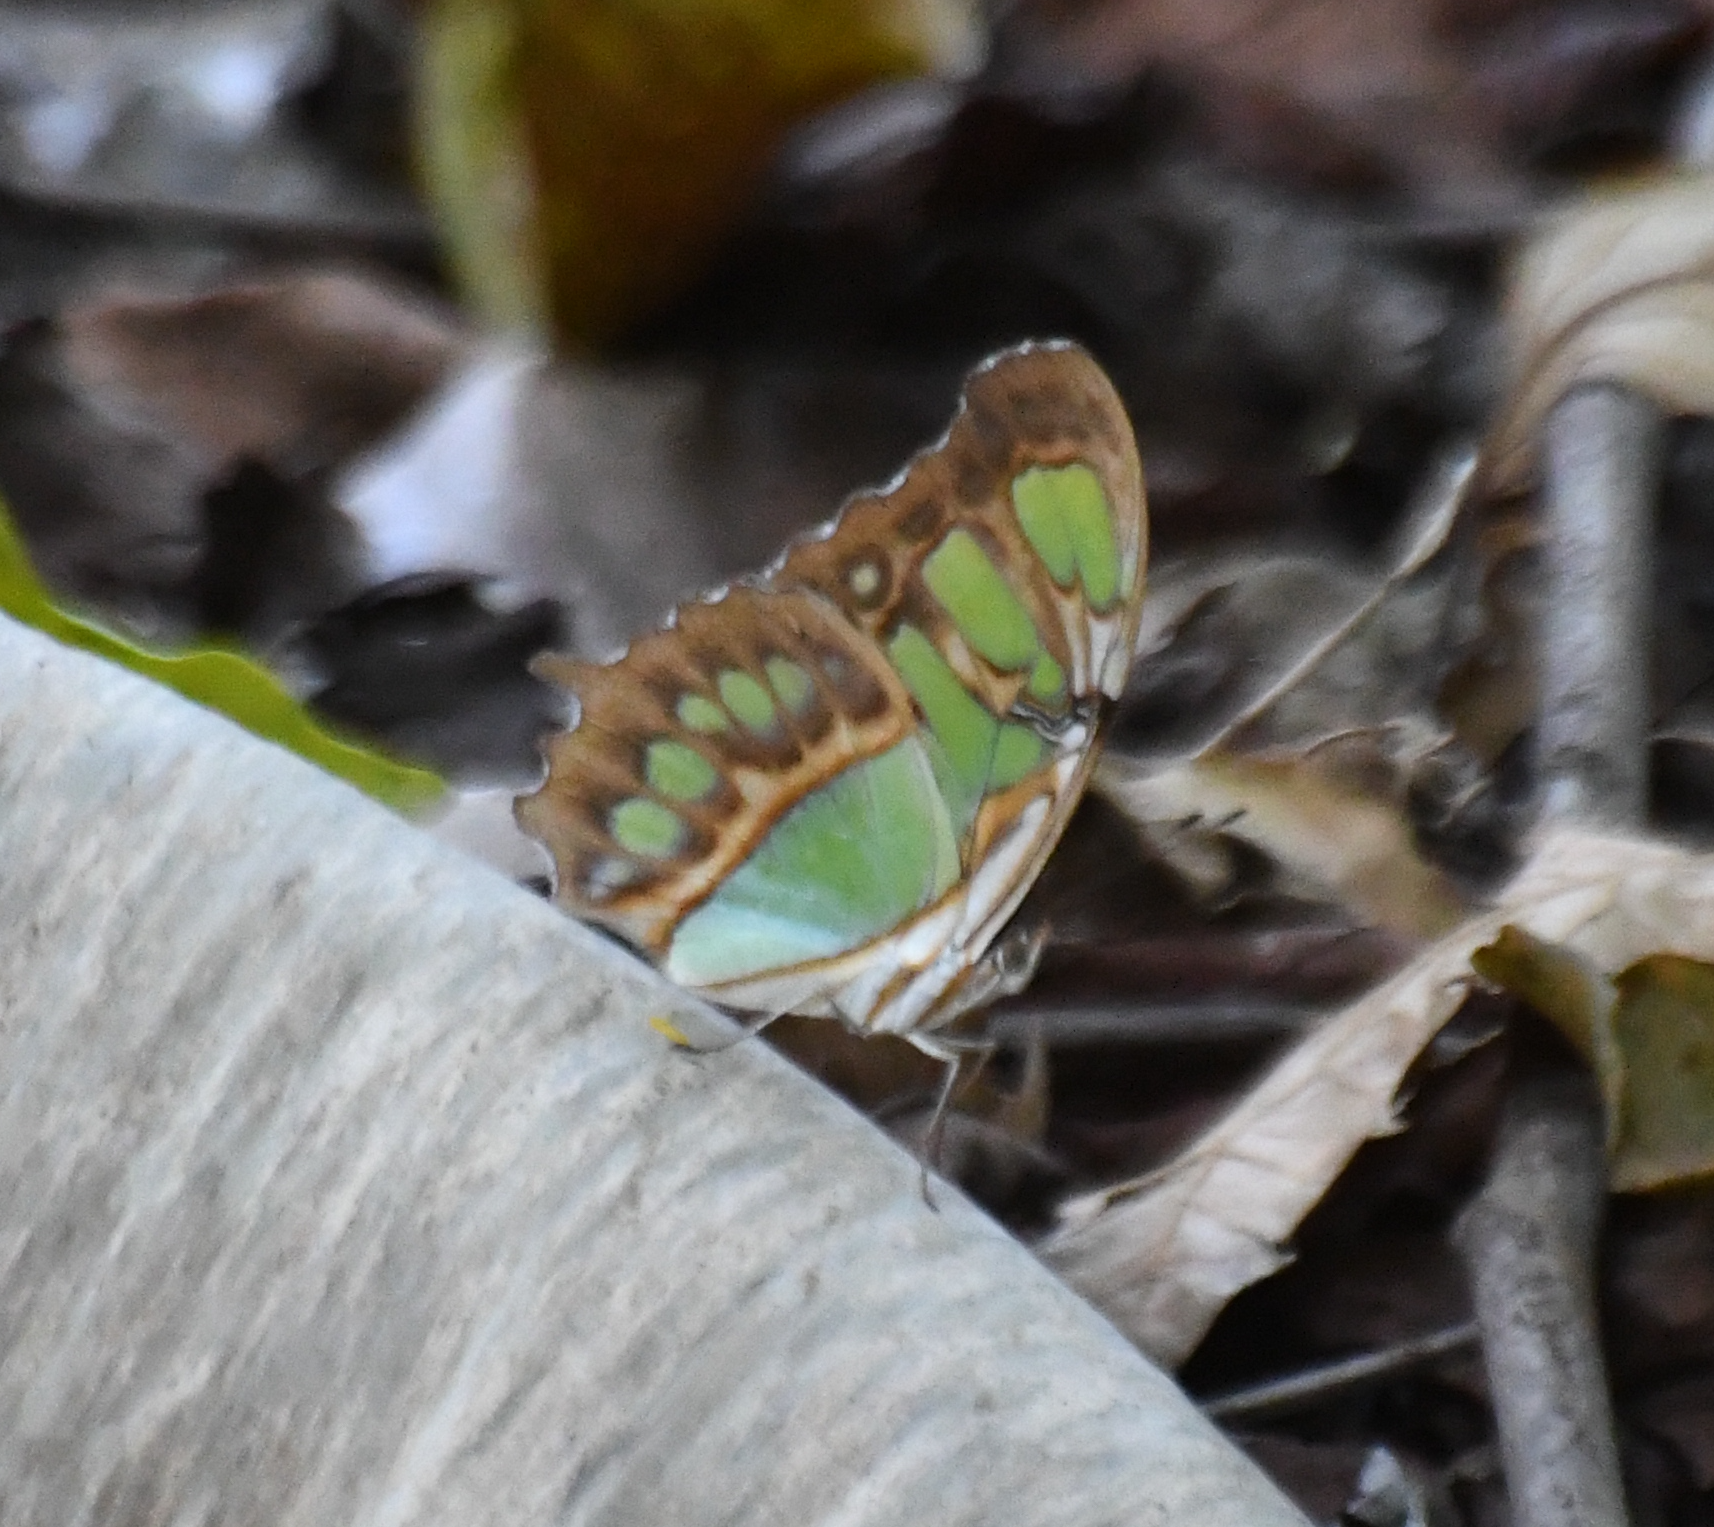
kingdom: Animalia
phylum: Arthropoda
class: Insecta
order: Lepidoptera
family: Nymphalidae
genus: Siproeta
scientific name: Siproeta stelenes
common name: Malachite
